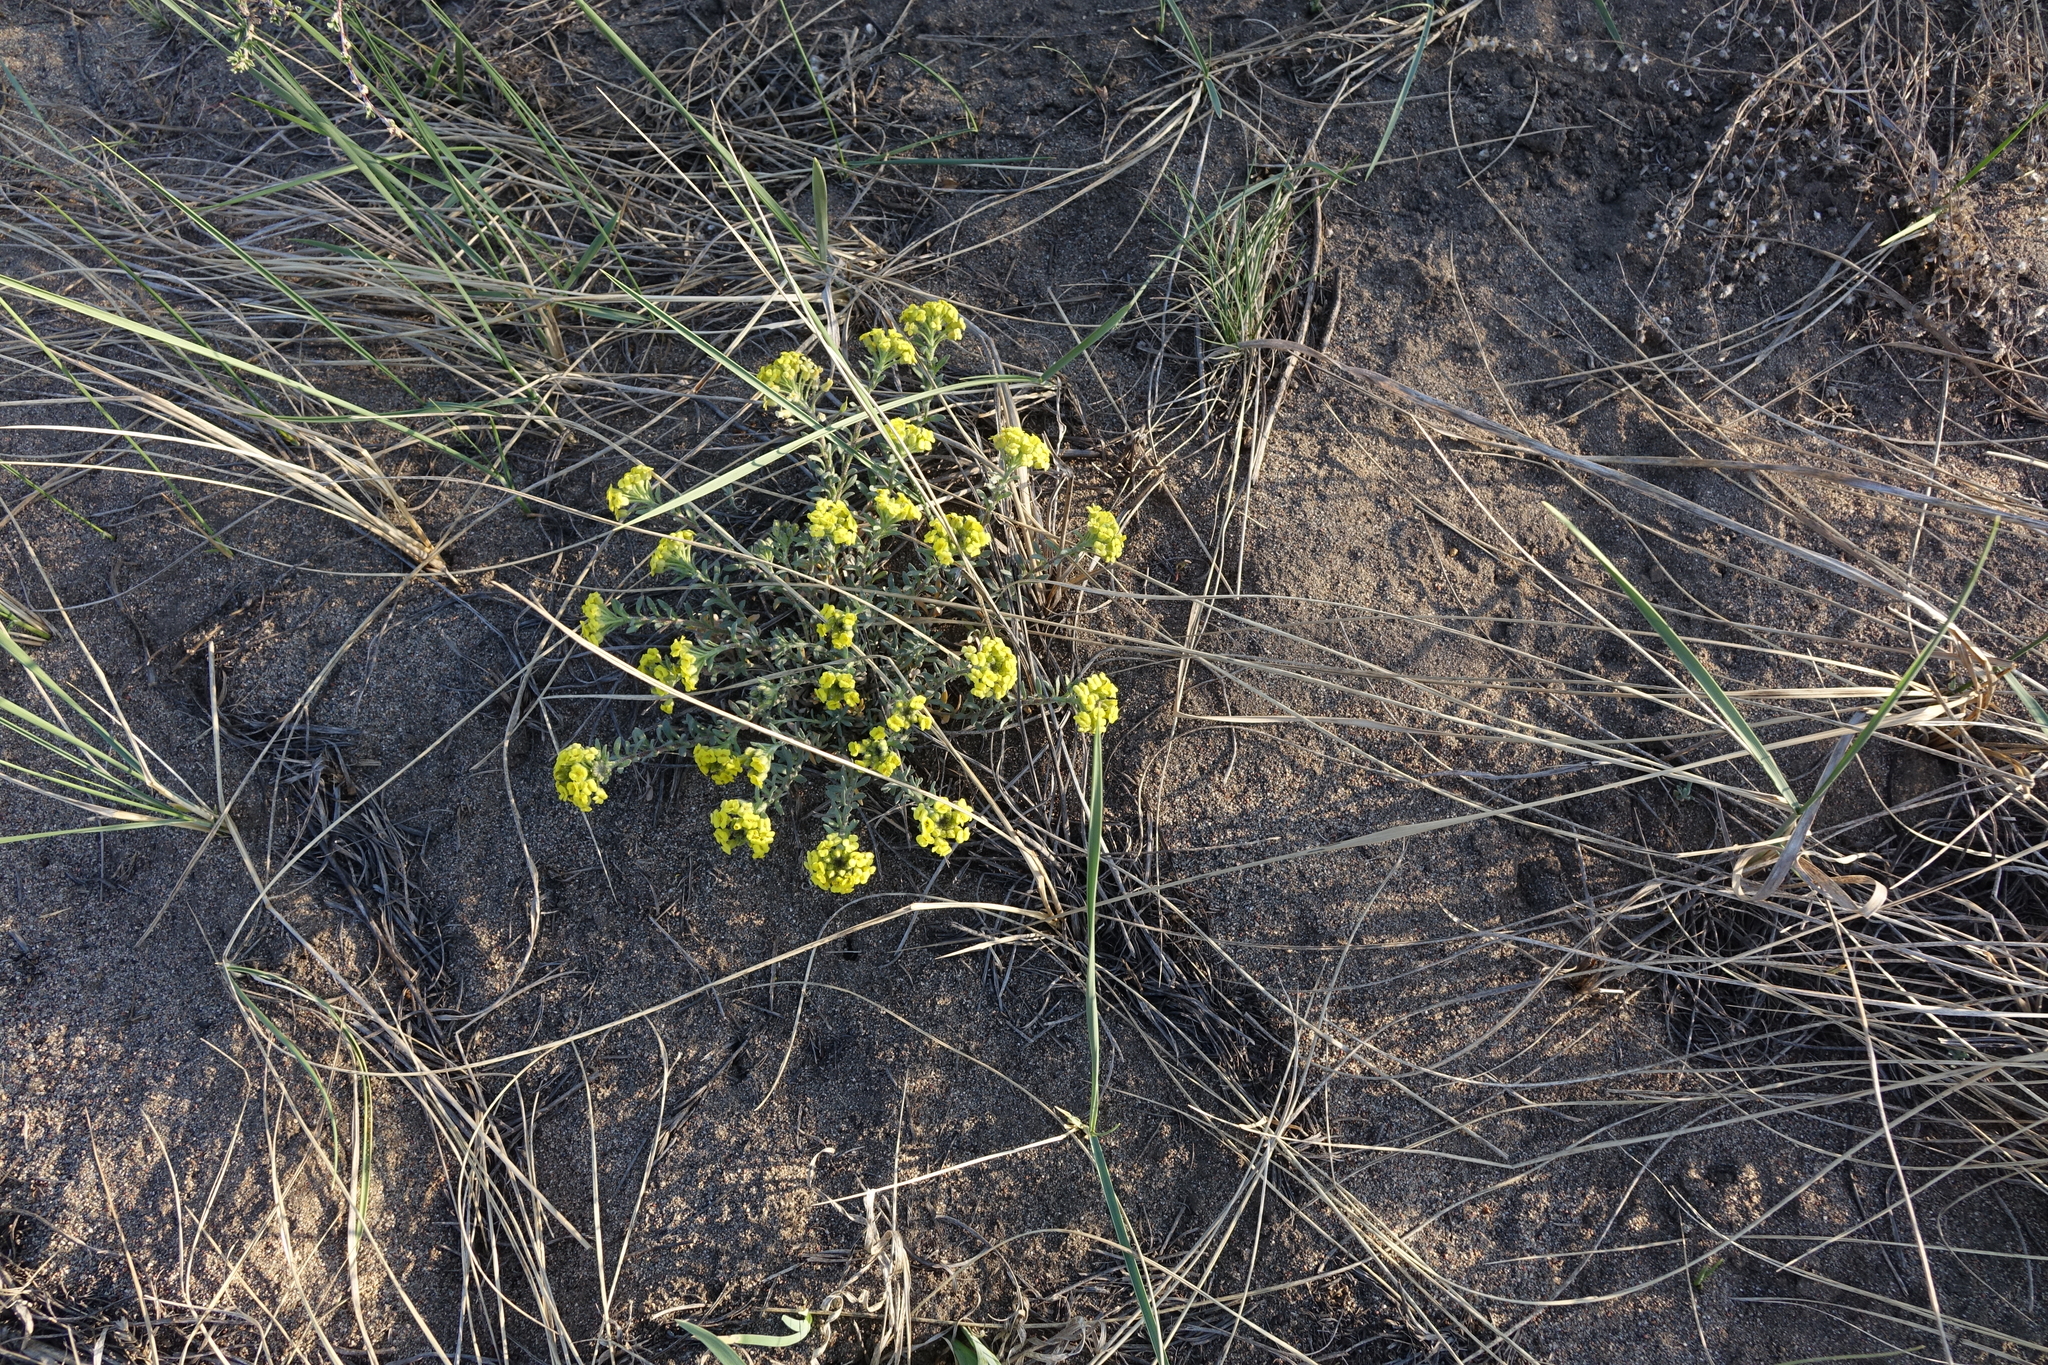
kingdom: Plantae
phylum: Tracheophyta
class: Magnoliopsida
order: Brassicales
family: Brassicaceae
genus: Odontarrhena
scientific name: Odontarrhena obovata
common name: American alyssum
